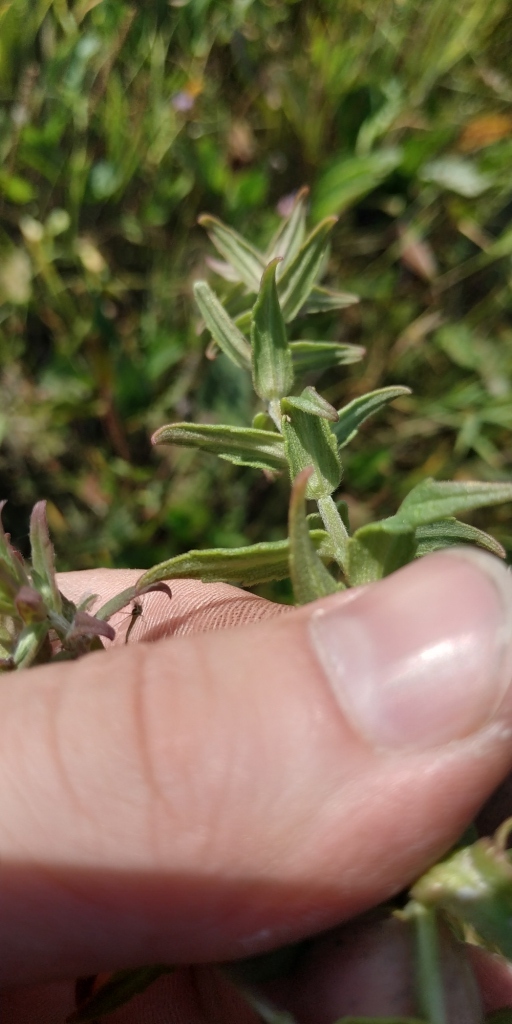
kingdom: Plantae
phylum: Tracheophyta
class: Magnoliopsida
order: Lamiales
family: Orobanchaceae
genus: Odontites
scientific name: Odontites vulgaris
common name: Broomrape
